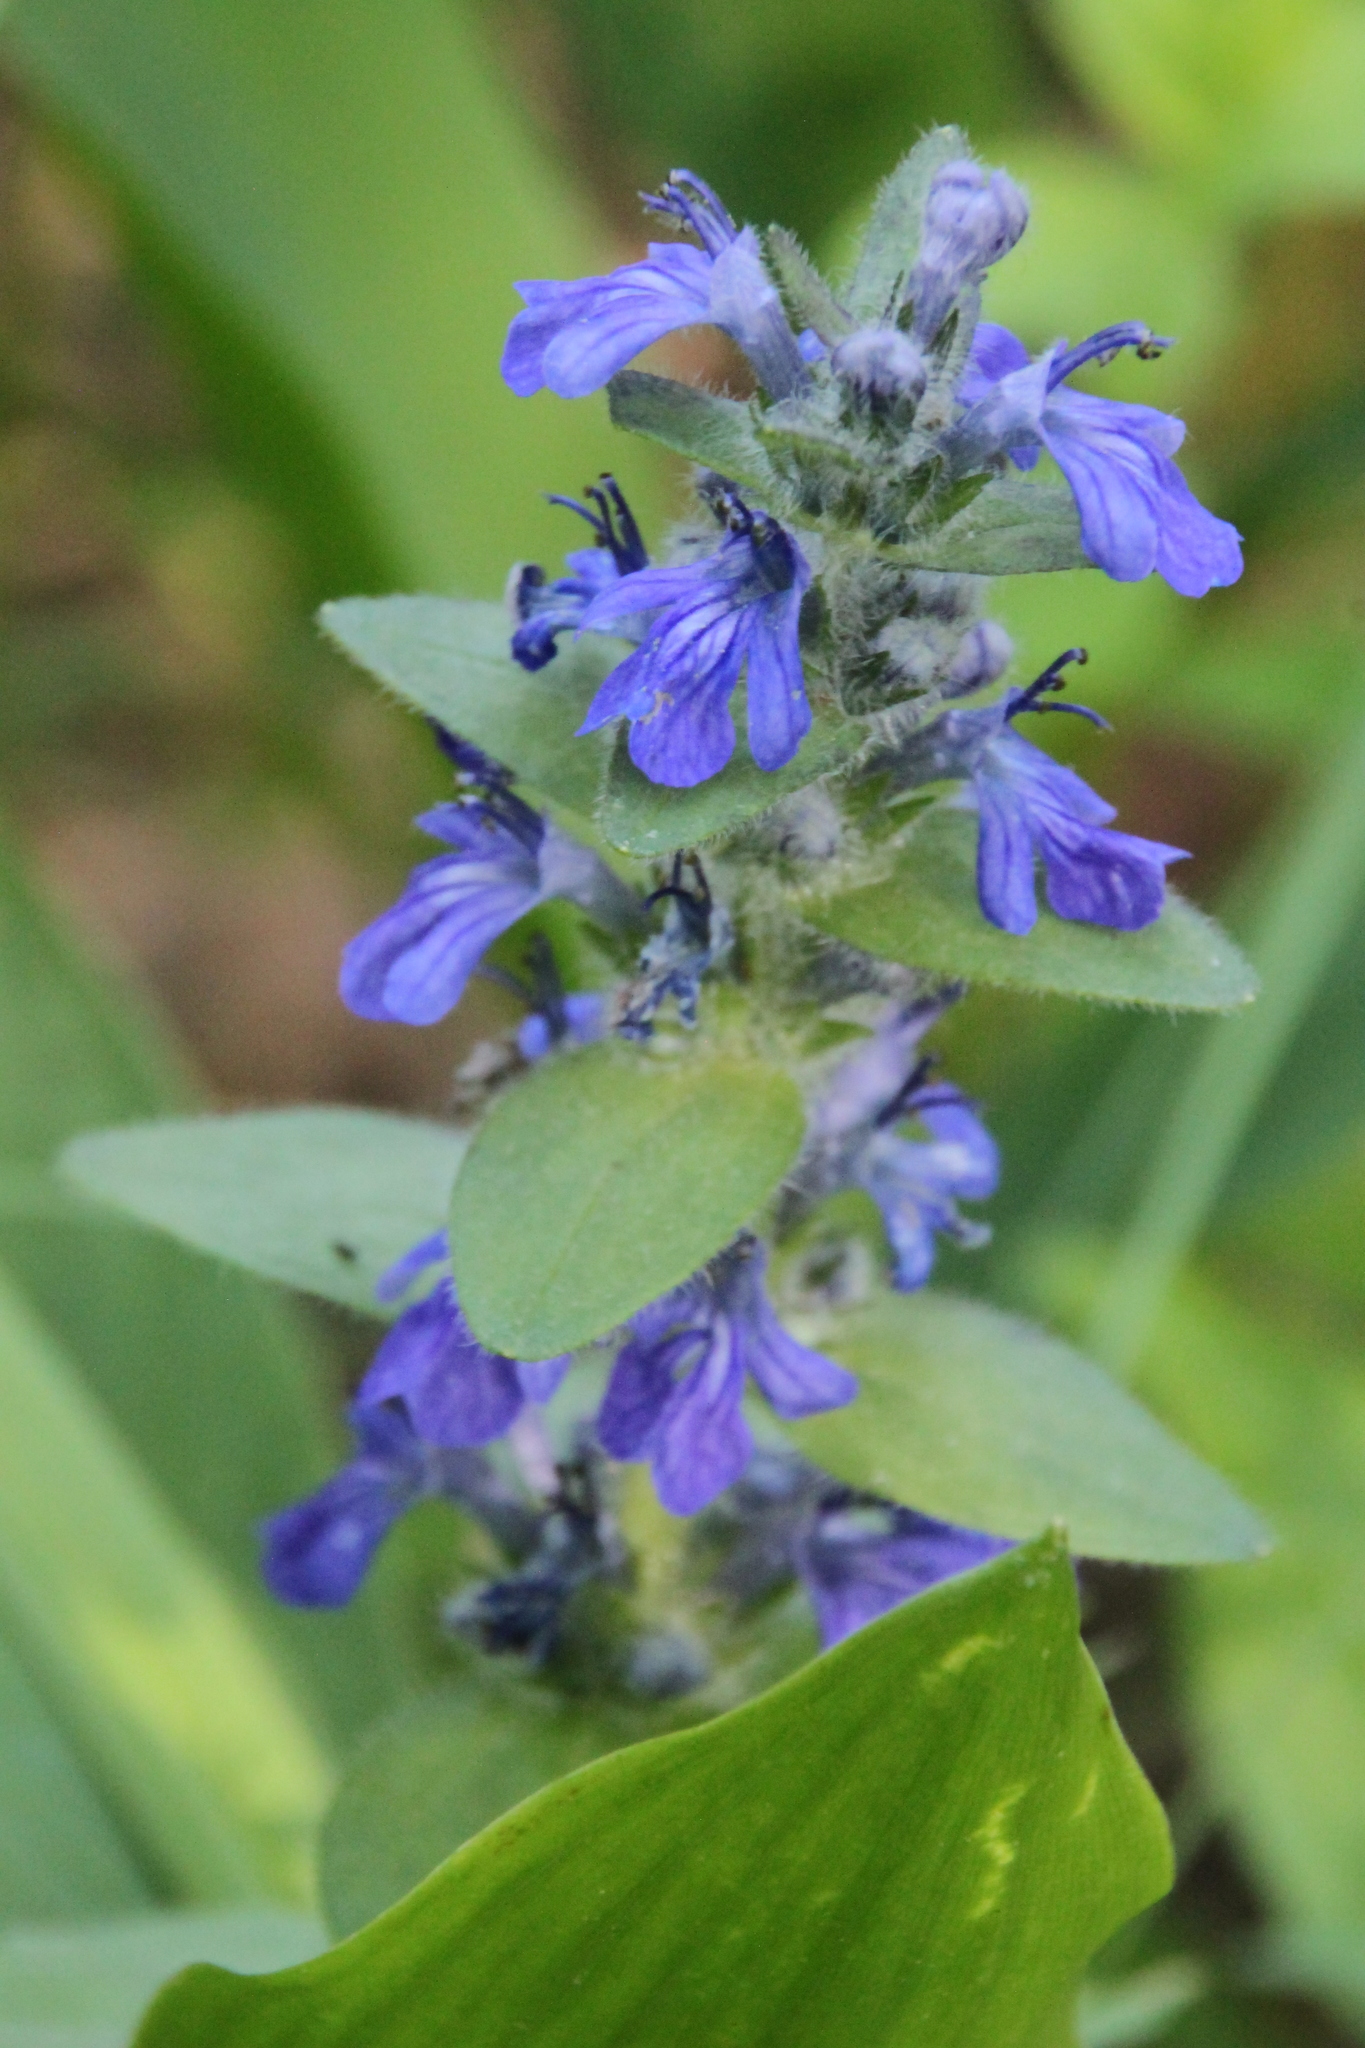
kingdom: Plantae
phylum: Tracheophyta
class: Magnoliopsida
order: Lamiales
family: Lamiaceae
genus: Ajuga
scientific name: Ajuga genevensis
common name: Blue bugle
